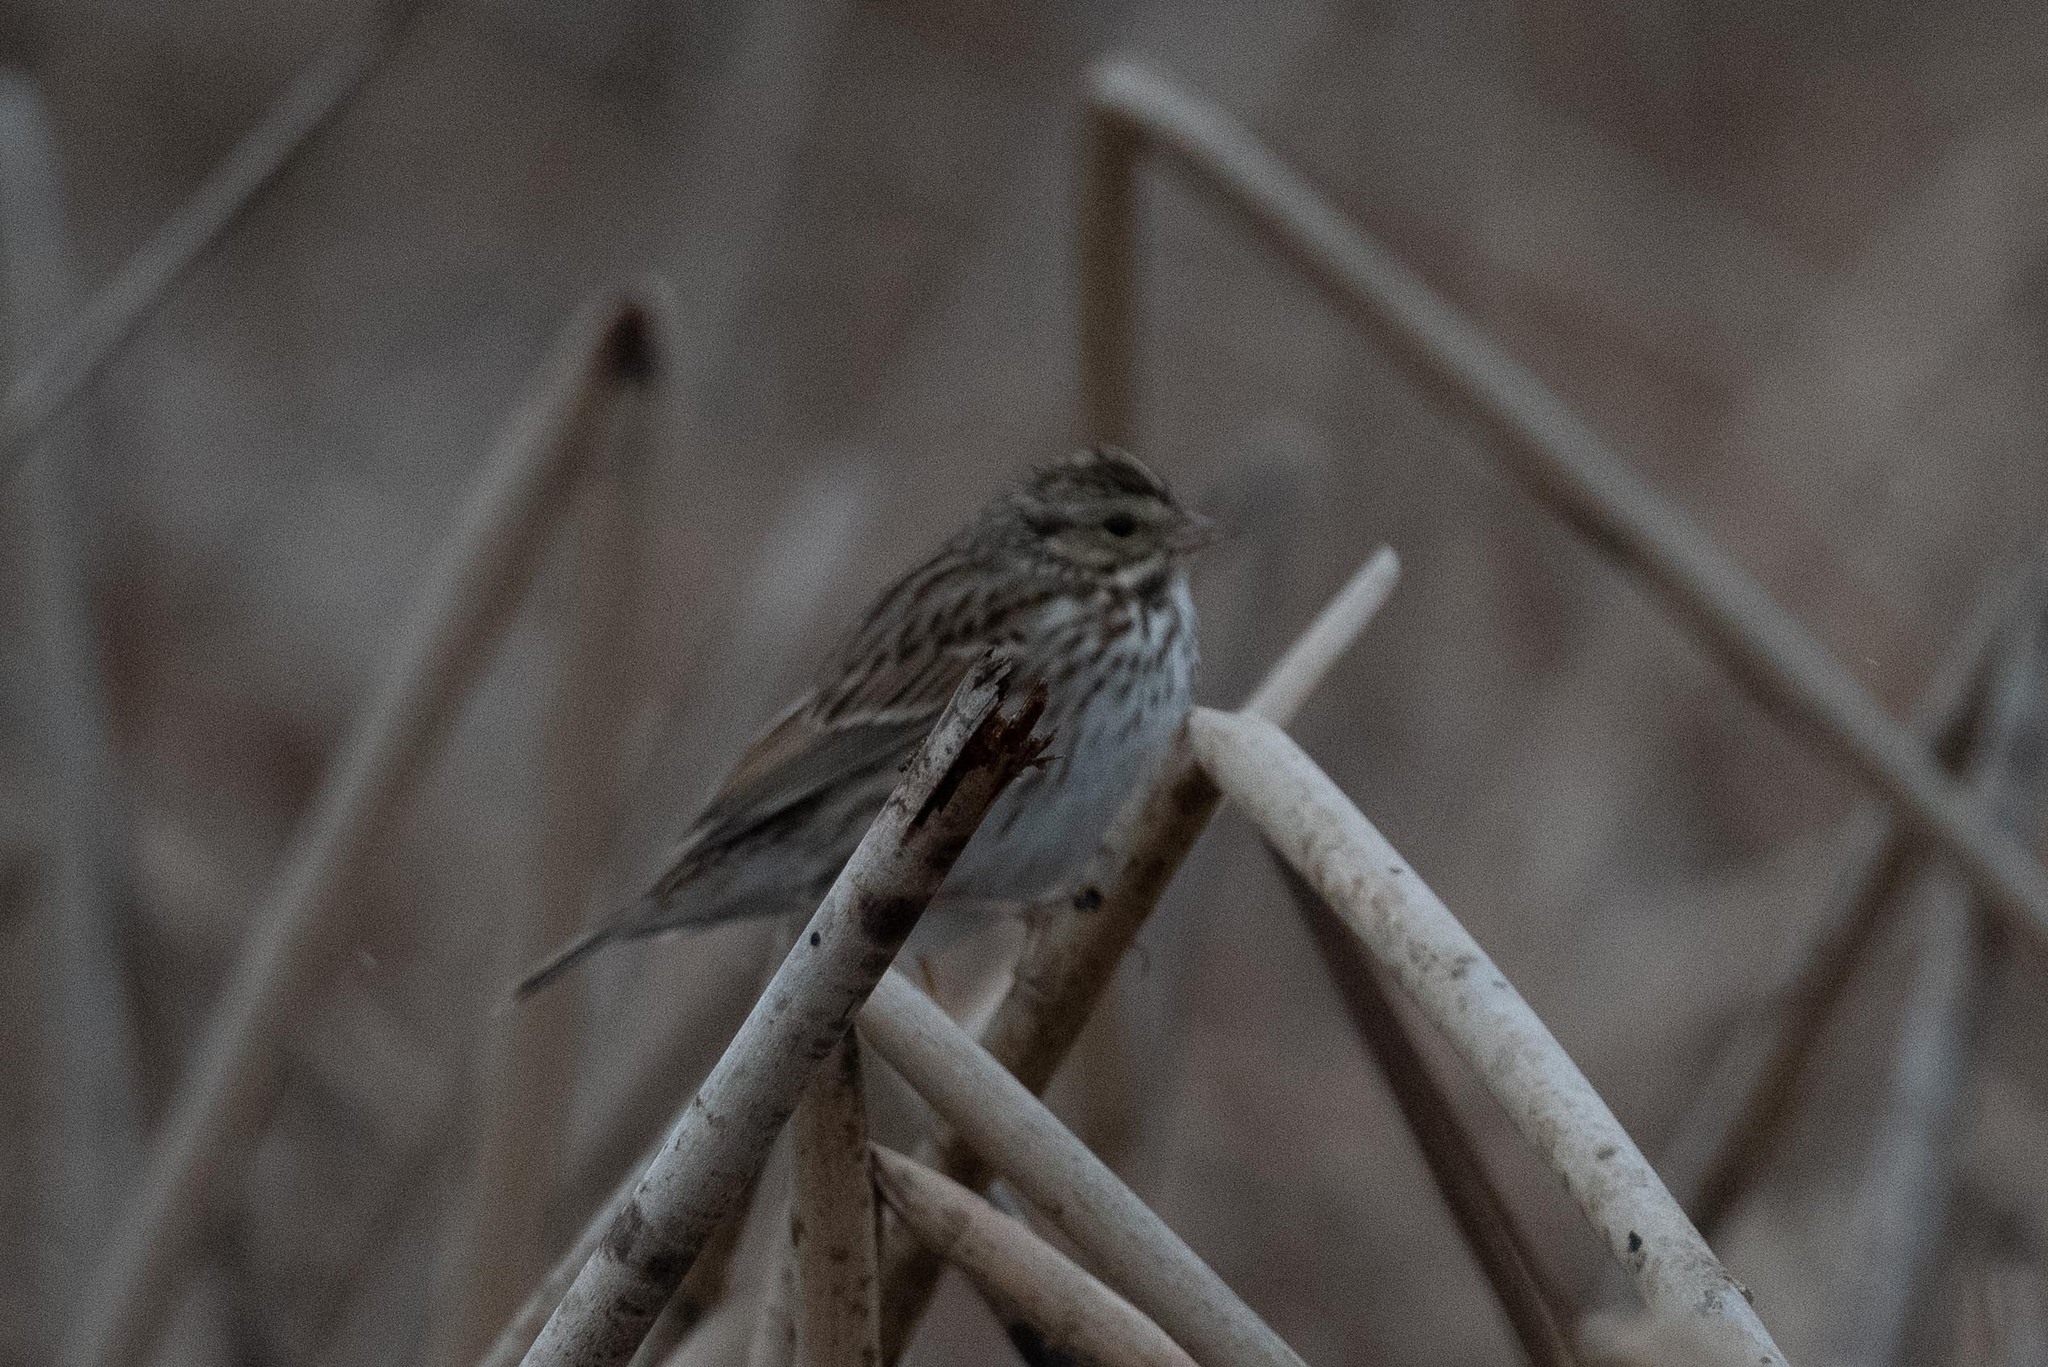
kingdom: Animalia
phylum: Chordata
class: Aves
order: Passeriformes
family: Passerellidae
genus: Passerculus
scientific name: Passerculus sandwichensis
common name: Savannah sparrow
